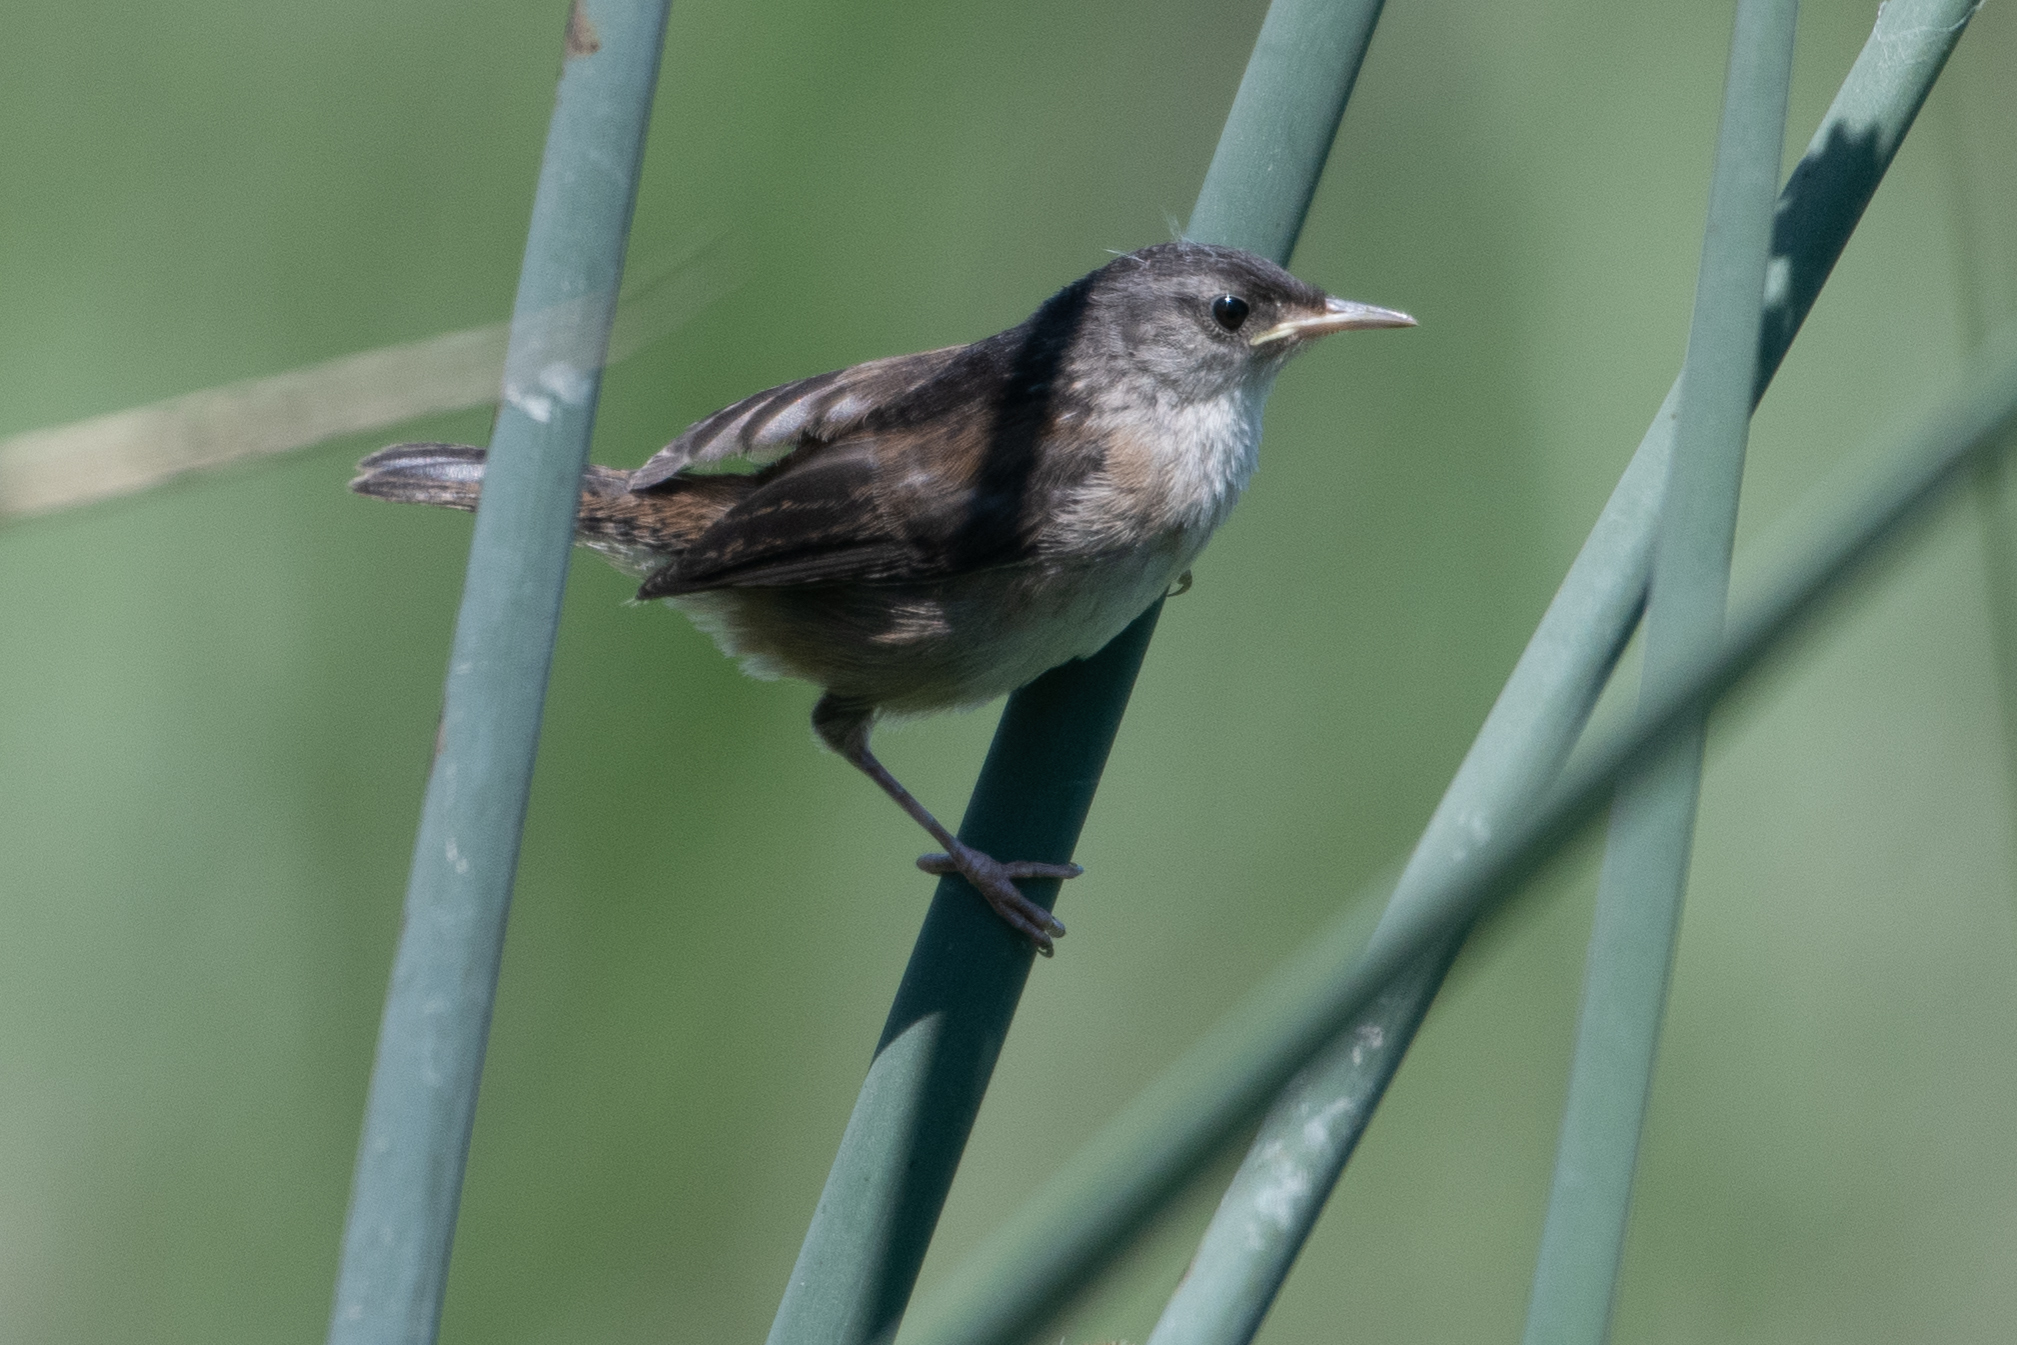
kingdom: Animalia
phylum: Chordata
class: Aves
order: Passeriformes
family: Troglodytidae
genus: Cistothorus
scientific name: Cistothorus palustris
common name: Marsh wren
